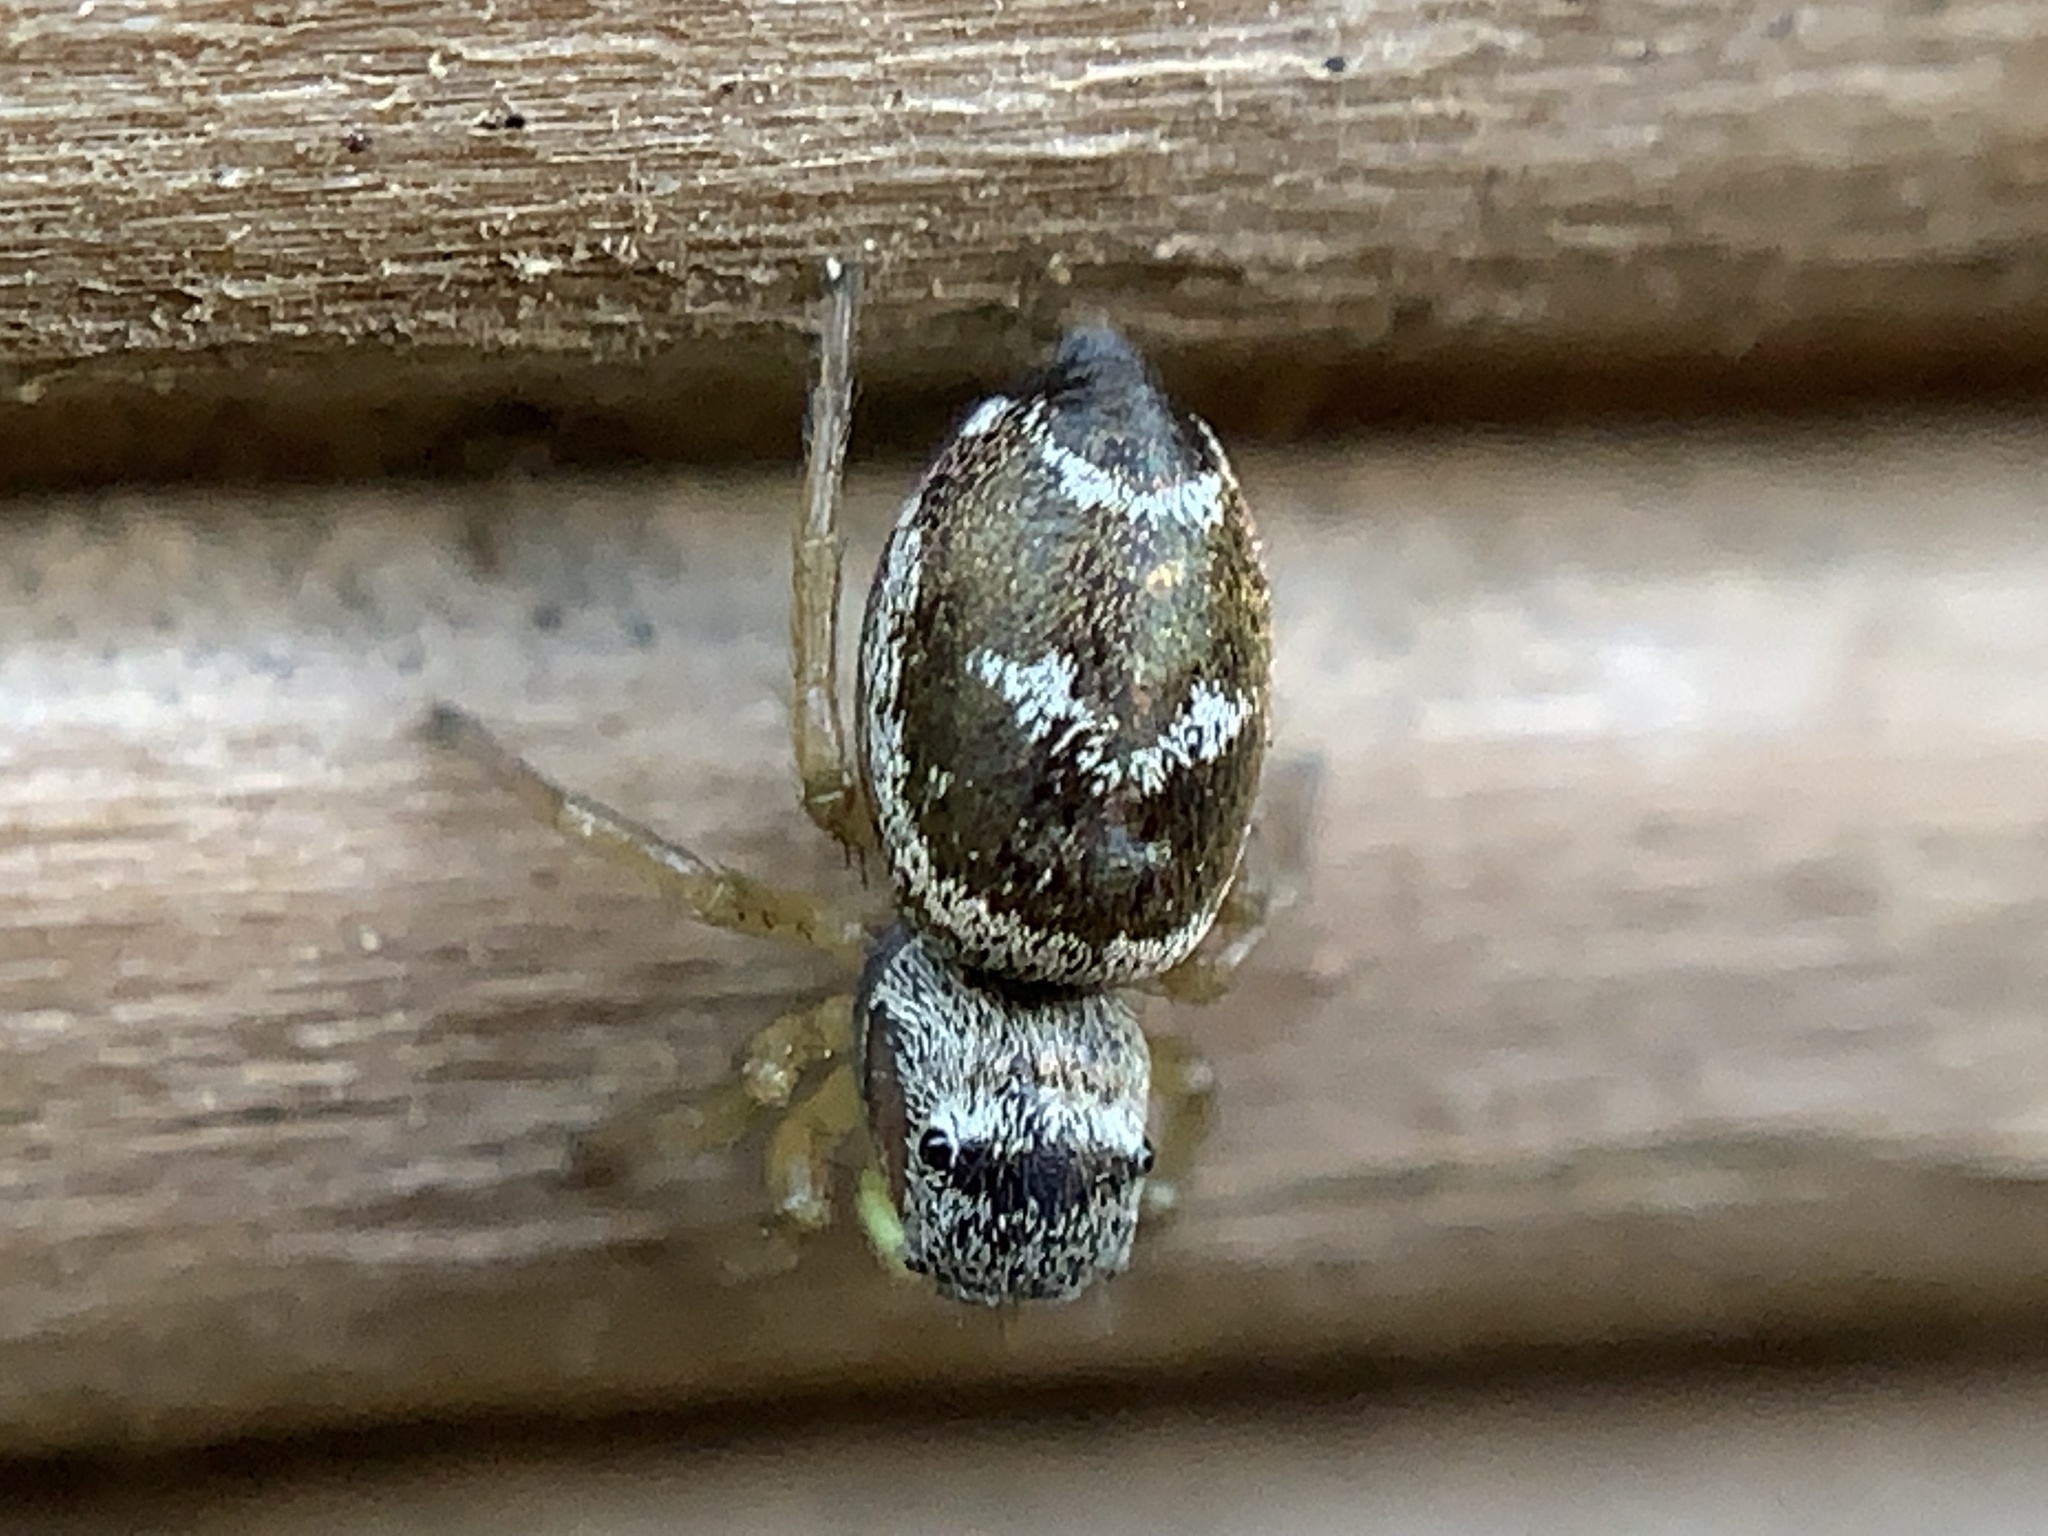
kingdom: Animalia
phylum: Arthropoda
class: Arachnida
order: Araneae
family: Salticidae
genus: Heliophanus
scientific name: Heliophanus tribulosus
